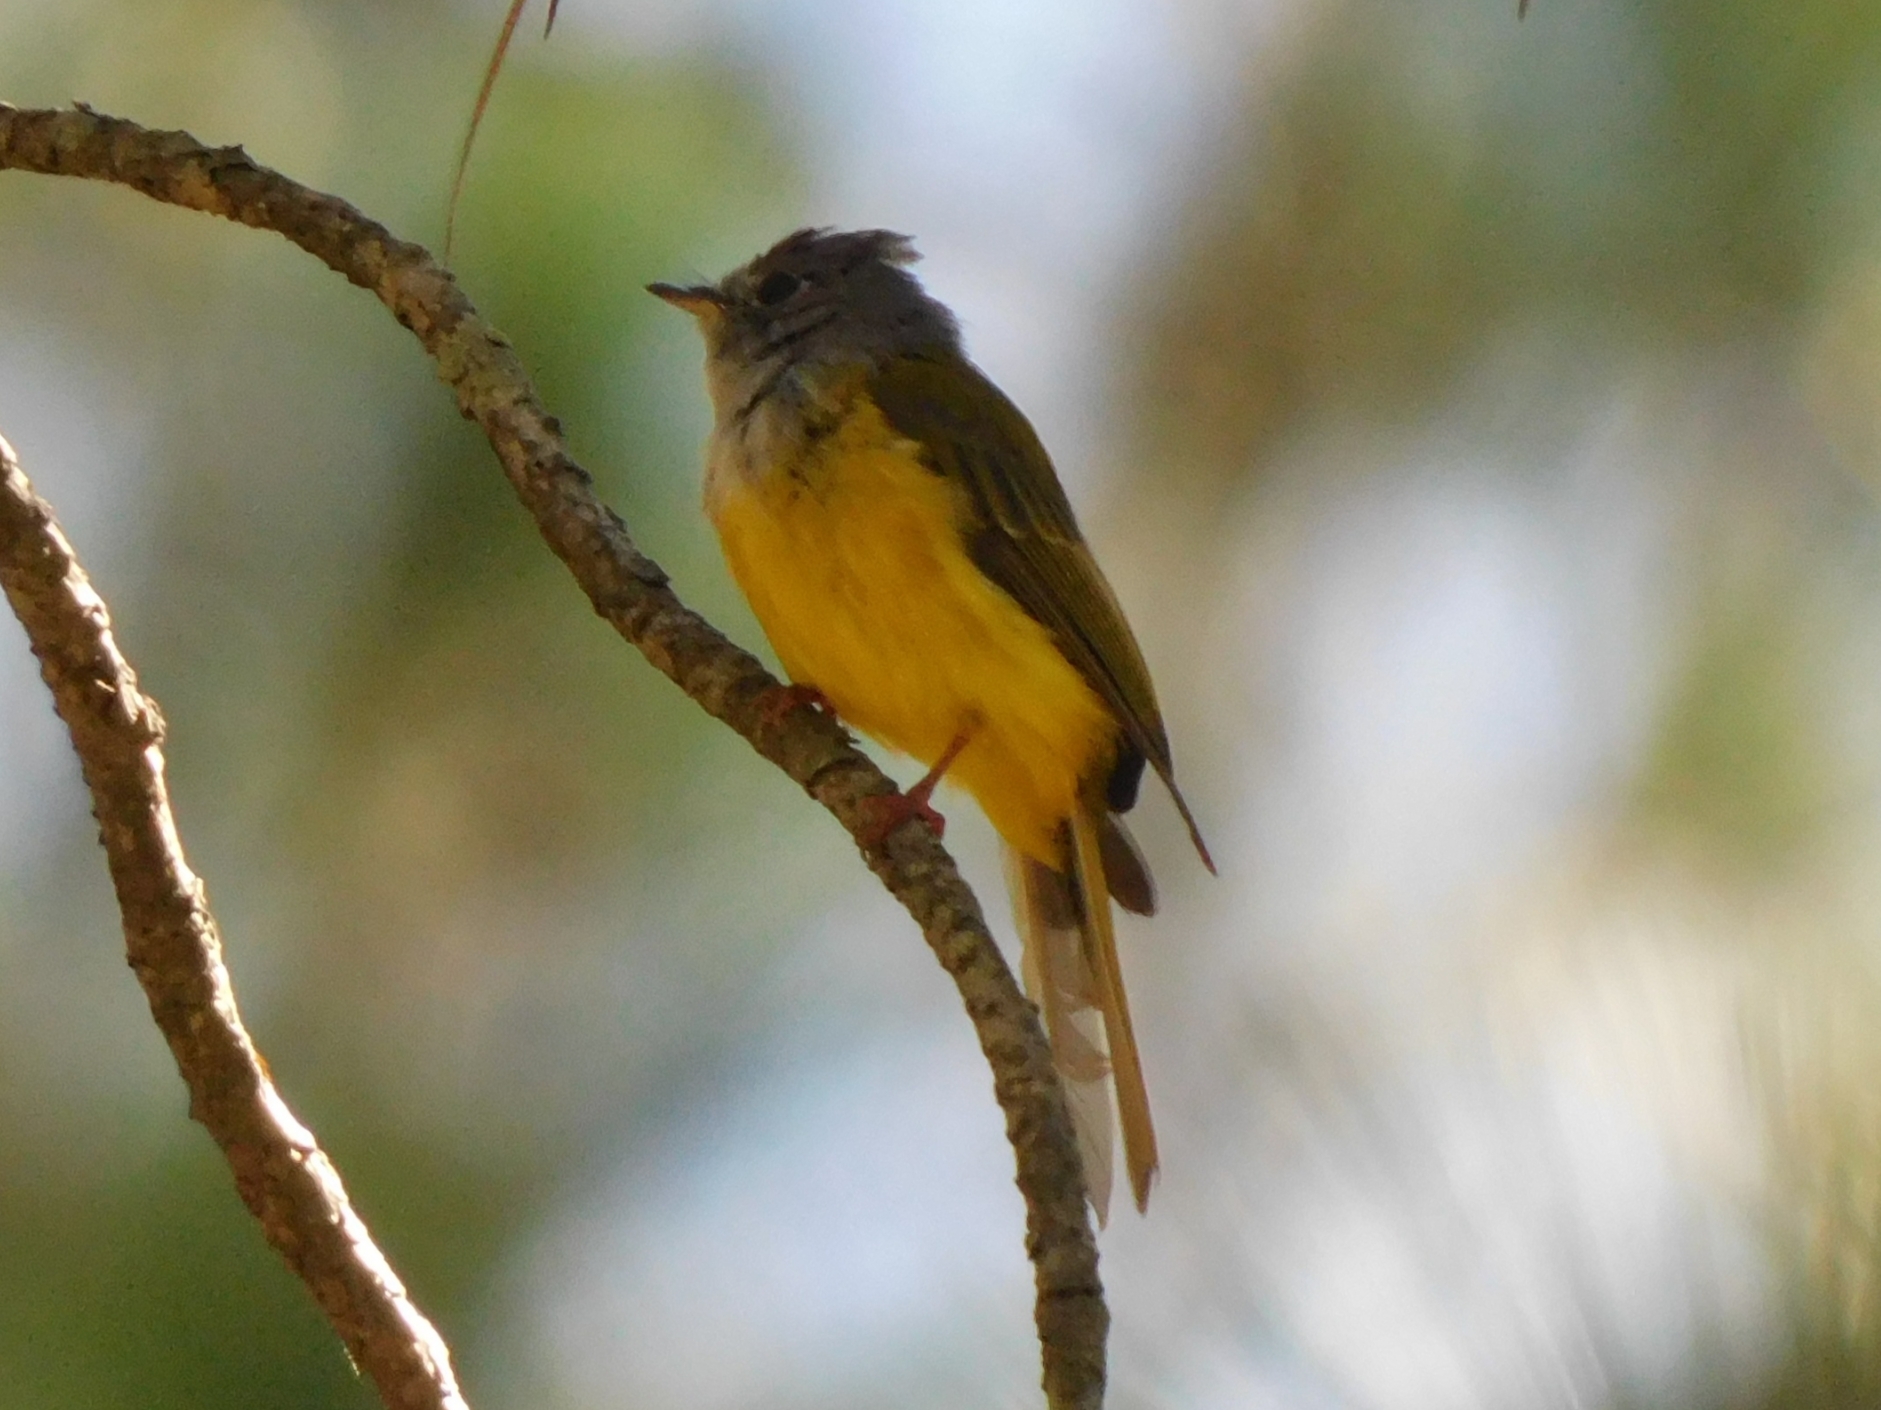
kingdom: Animalia
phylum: Chordata
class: Aves
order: Passeriformes
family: Stenostiridae
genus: Culicicapa
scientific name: Culicicapa ceylonensis
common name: Grey-headed canary-flycatcher
